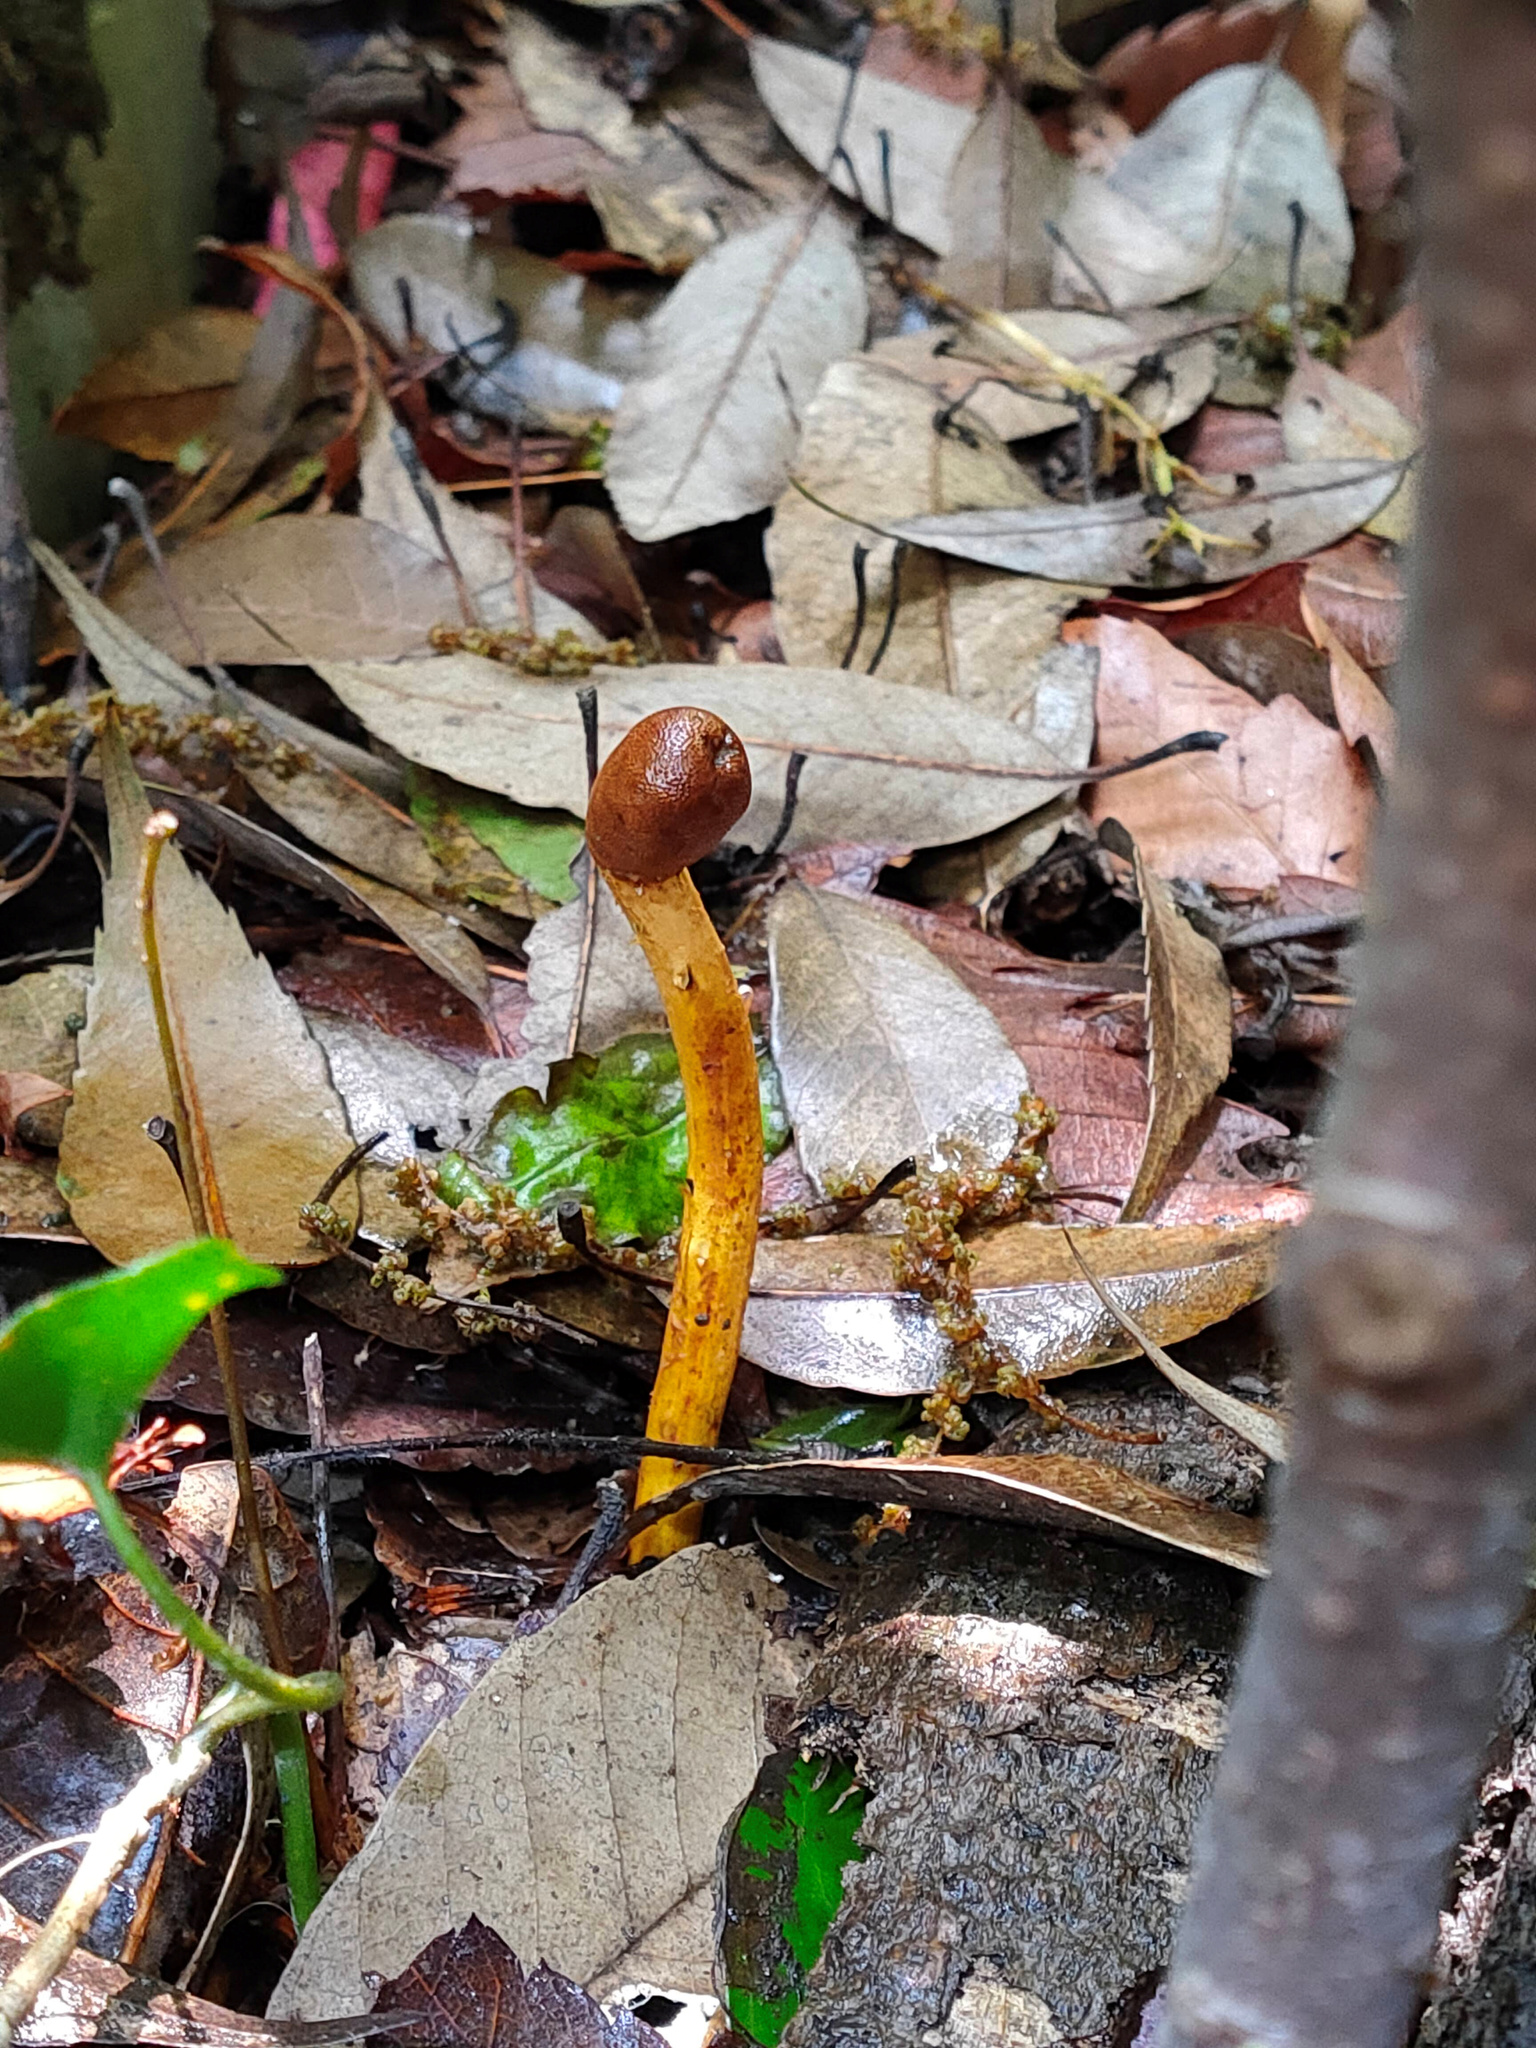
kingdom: Fungi
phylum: Ascomycota
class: Sordariomycetes
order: Hypocreales
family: Ophiocordycipitaceae
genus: Paraisaria
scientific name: Paraisaria heteropoda
